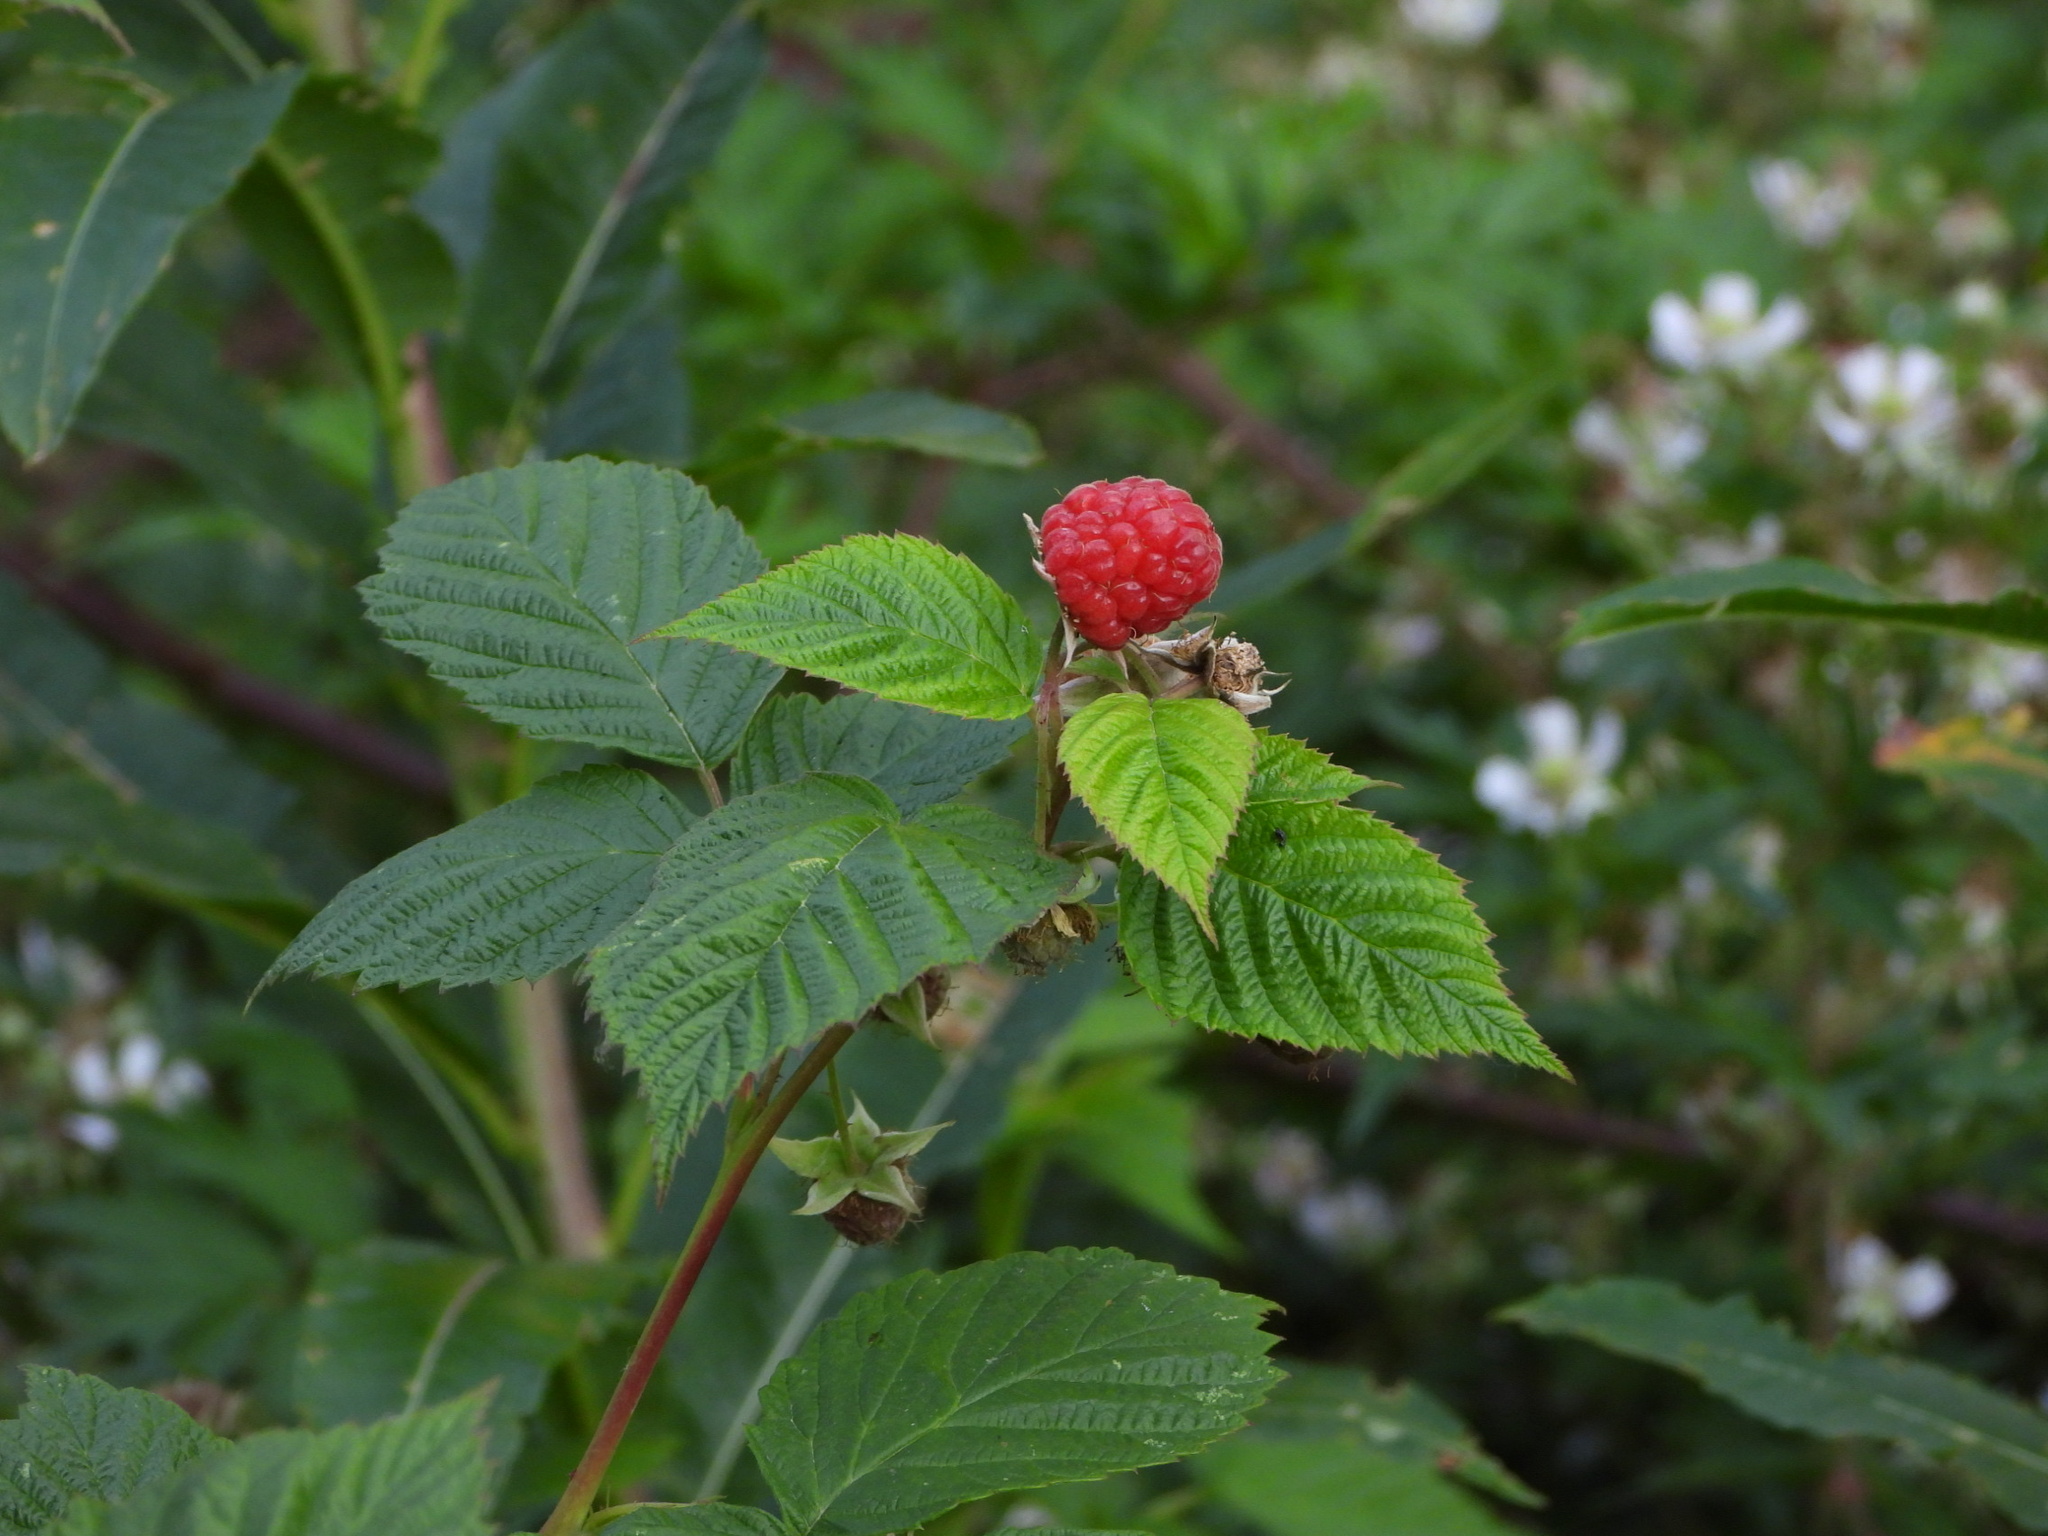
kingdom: Plantae
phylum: Tracheophyta
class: Magnoliopsida
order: Rosales
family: Rosaceae
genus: Rubus
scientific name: Rubus idaeus
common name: Raspberry
